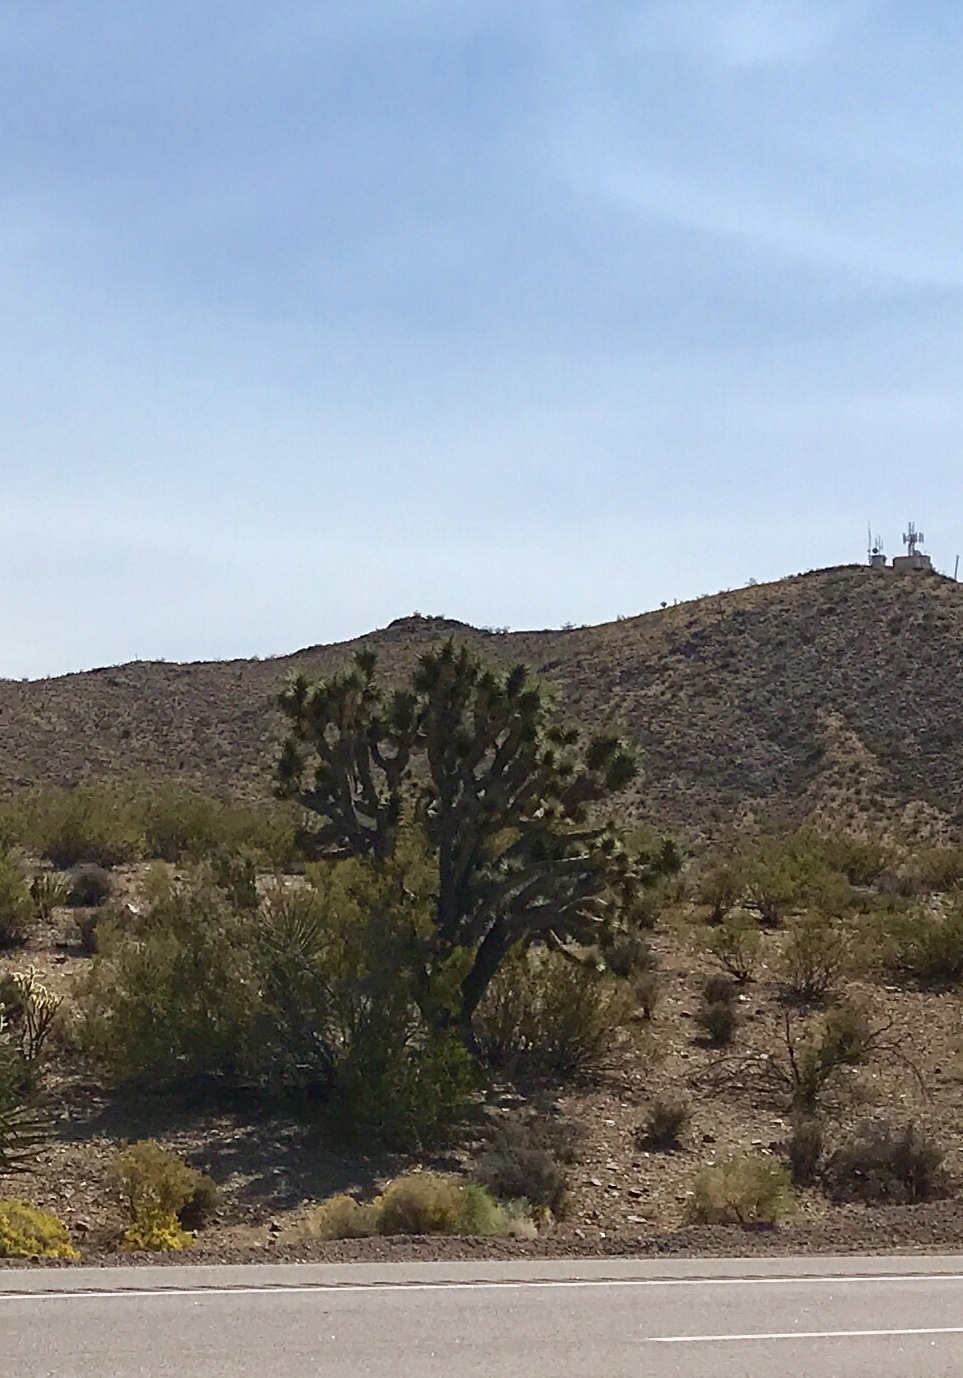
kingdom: Plantae
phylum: Tracheophyta
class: Liliopsida
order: Asparagales
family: Asparagaceae
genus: Yucca
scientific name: Yucca brevifolia
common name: Joshua tree
